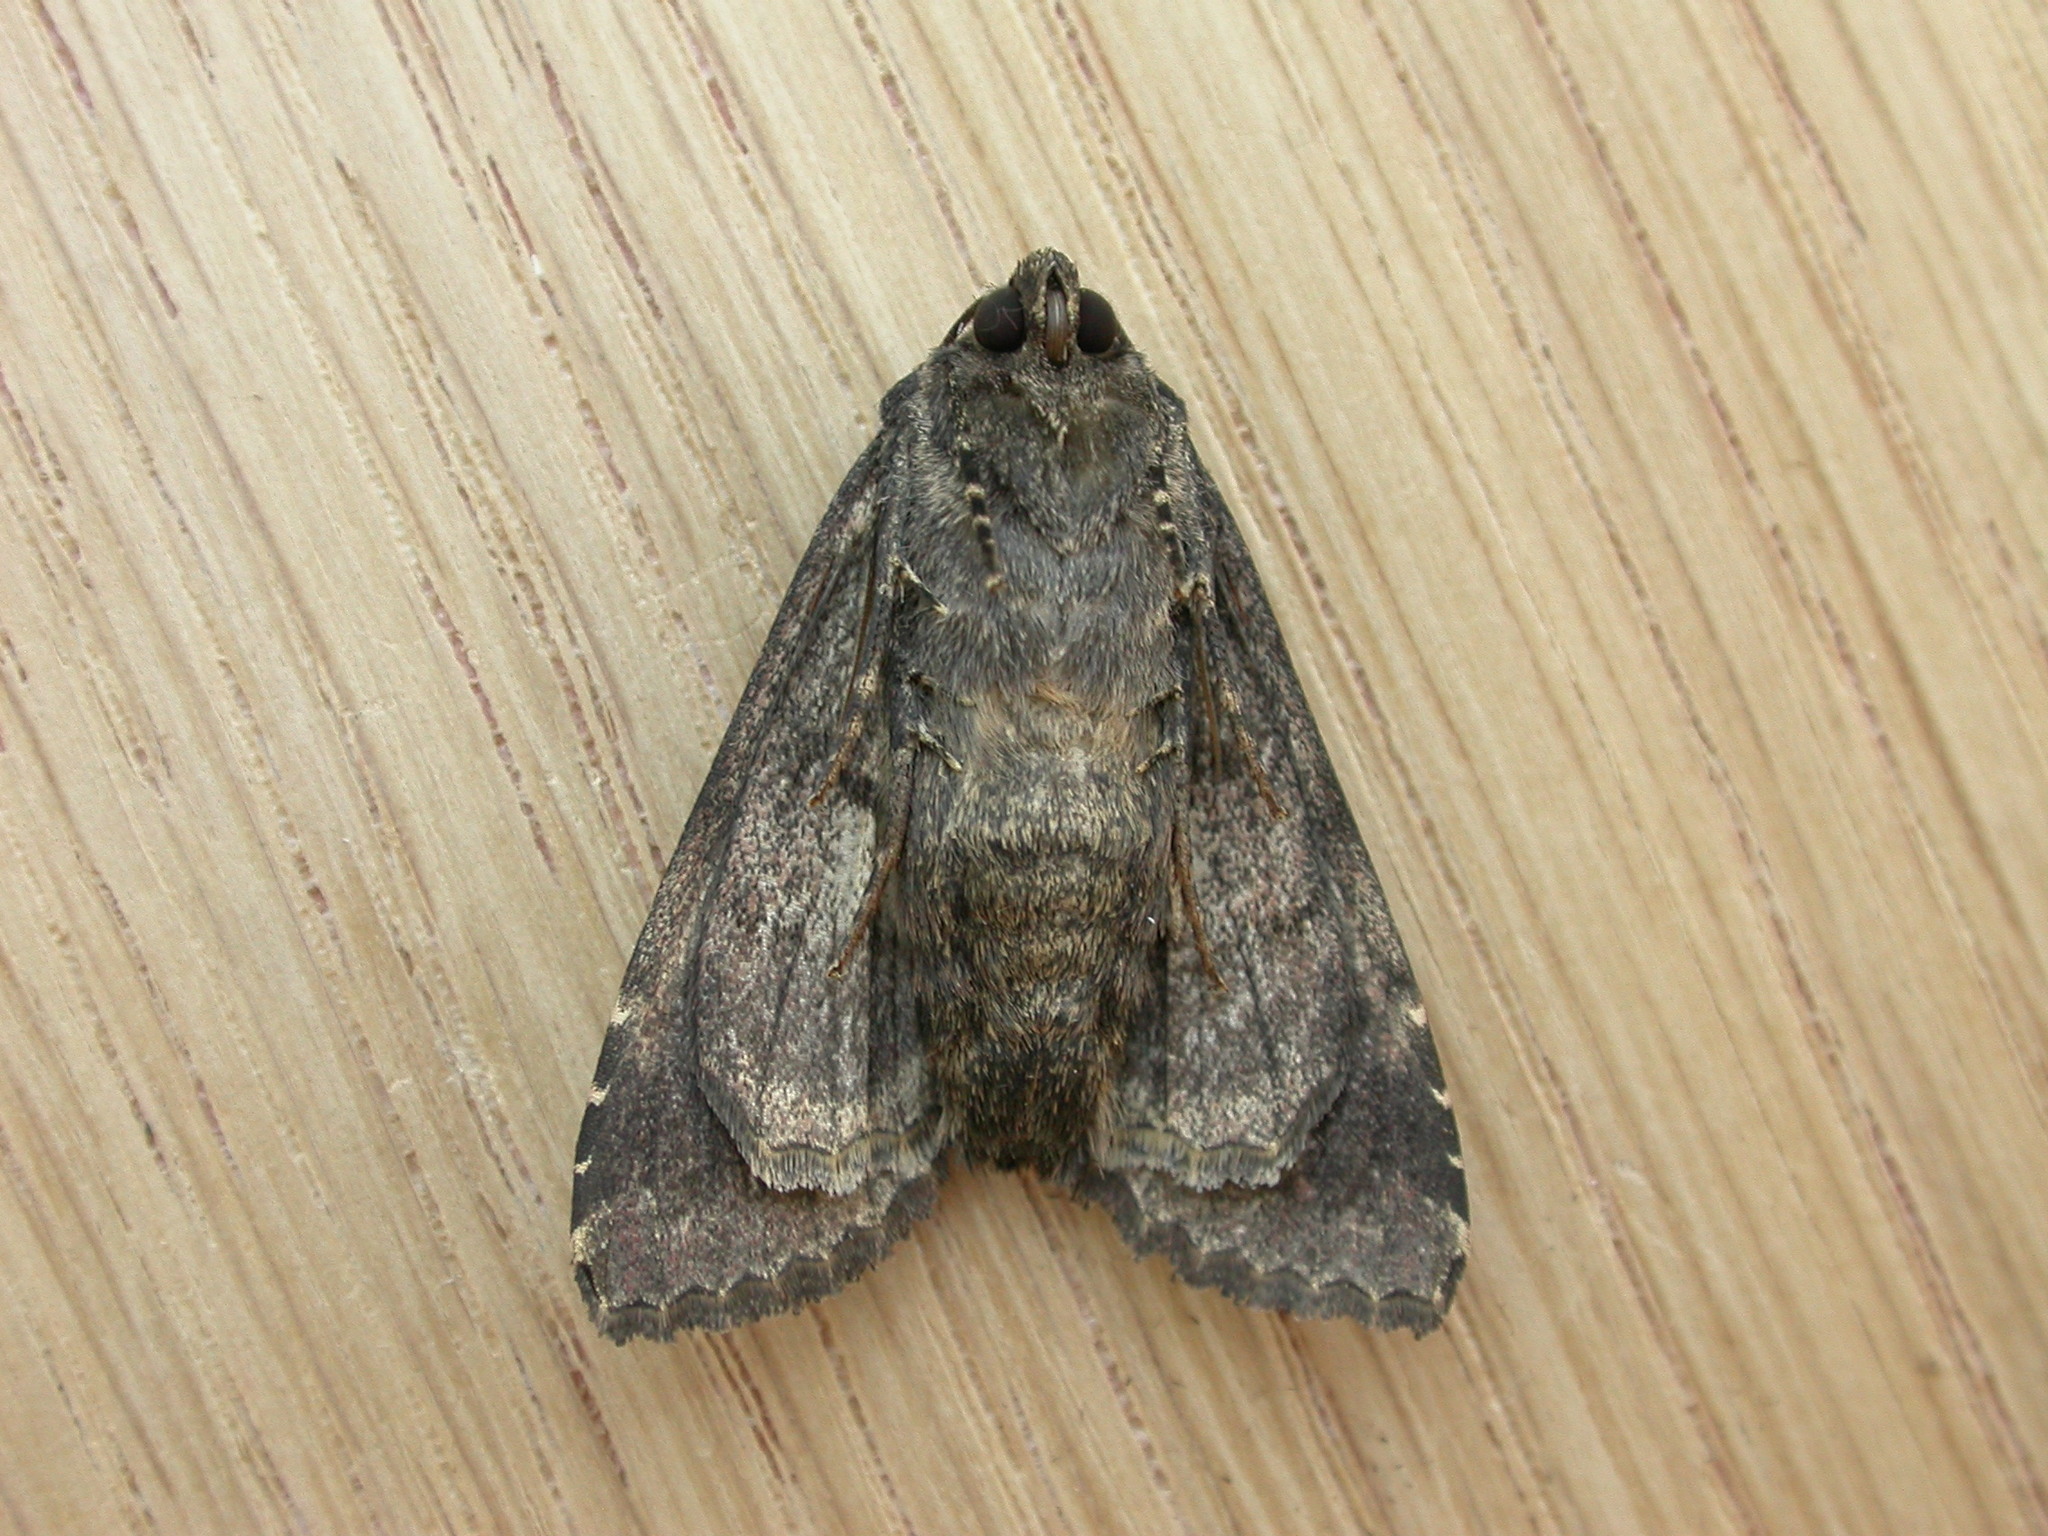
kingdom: Animalia
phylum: Arthropoda
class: Insecta
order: Lepidoptera
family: Noctuidae
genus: Melanchra
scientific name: Melanchra persicariae
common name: Dot moth
